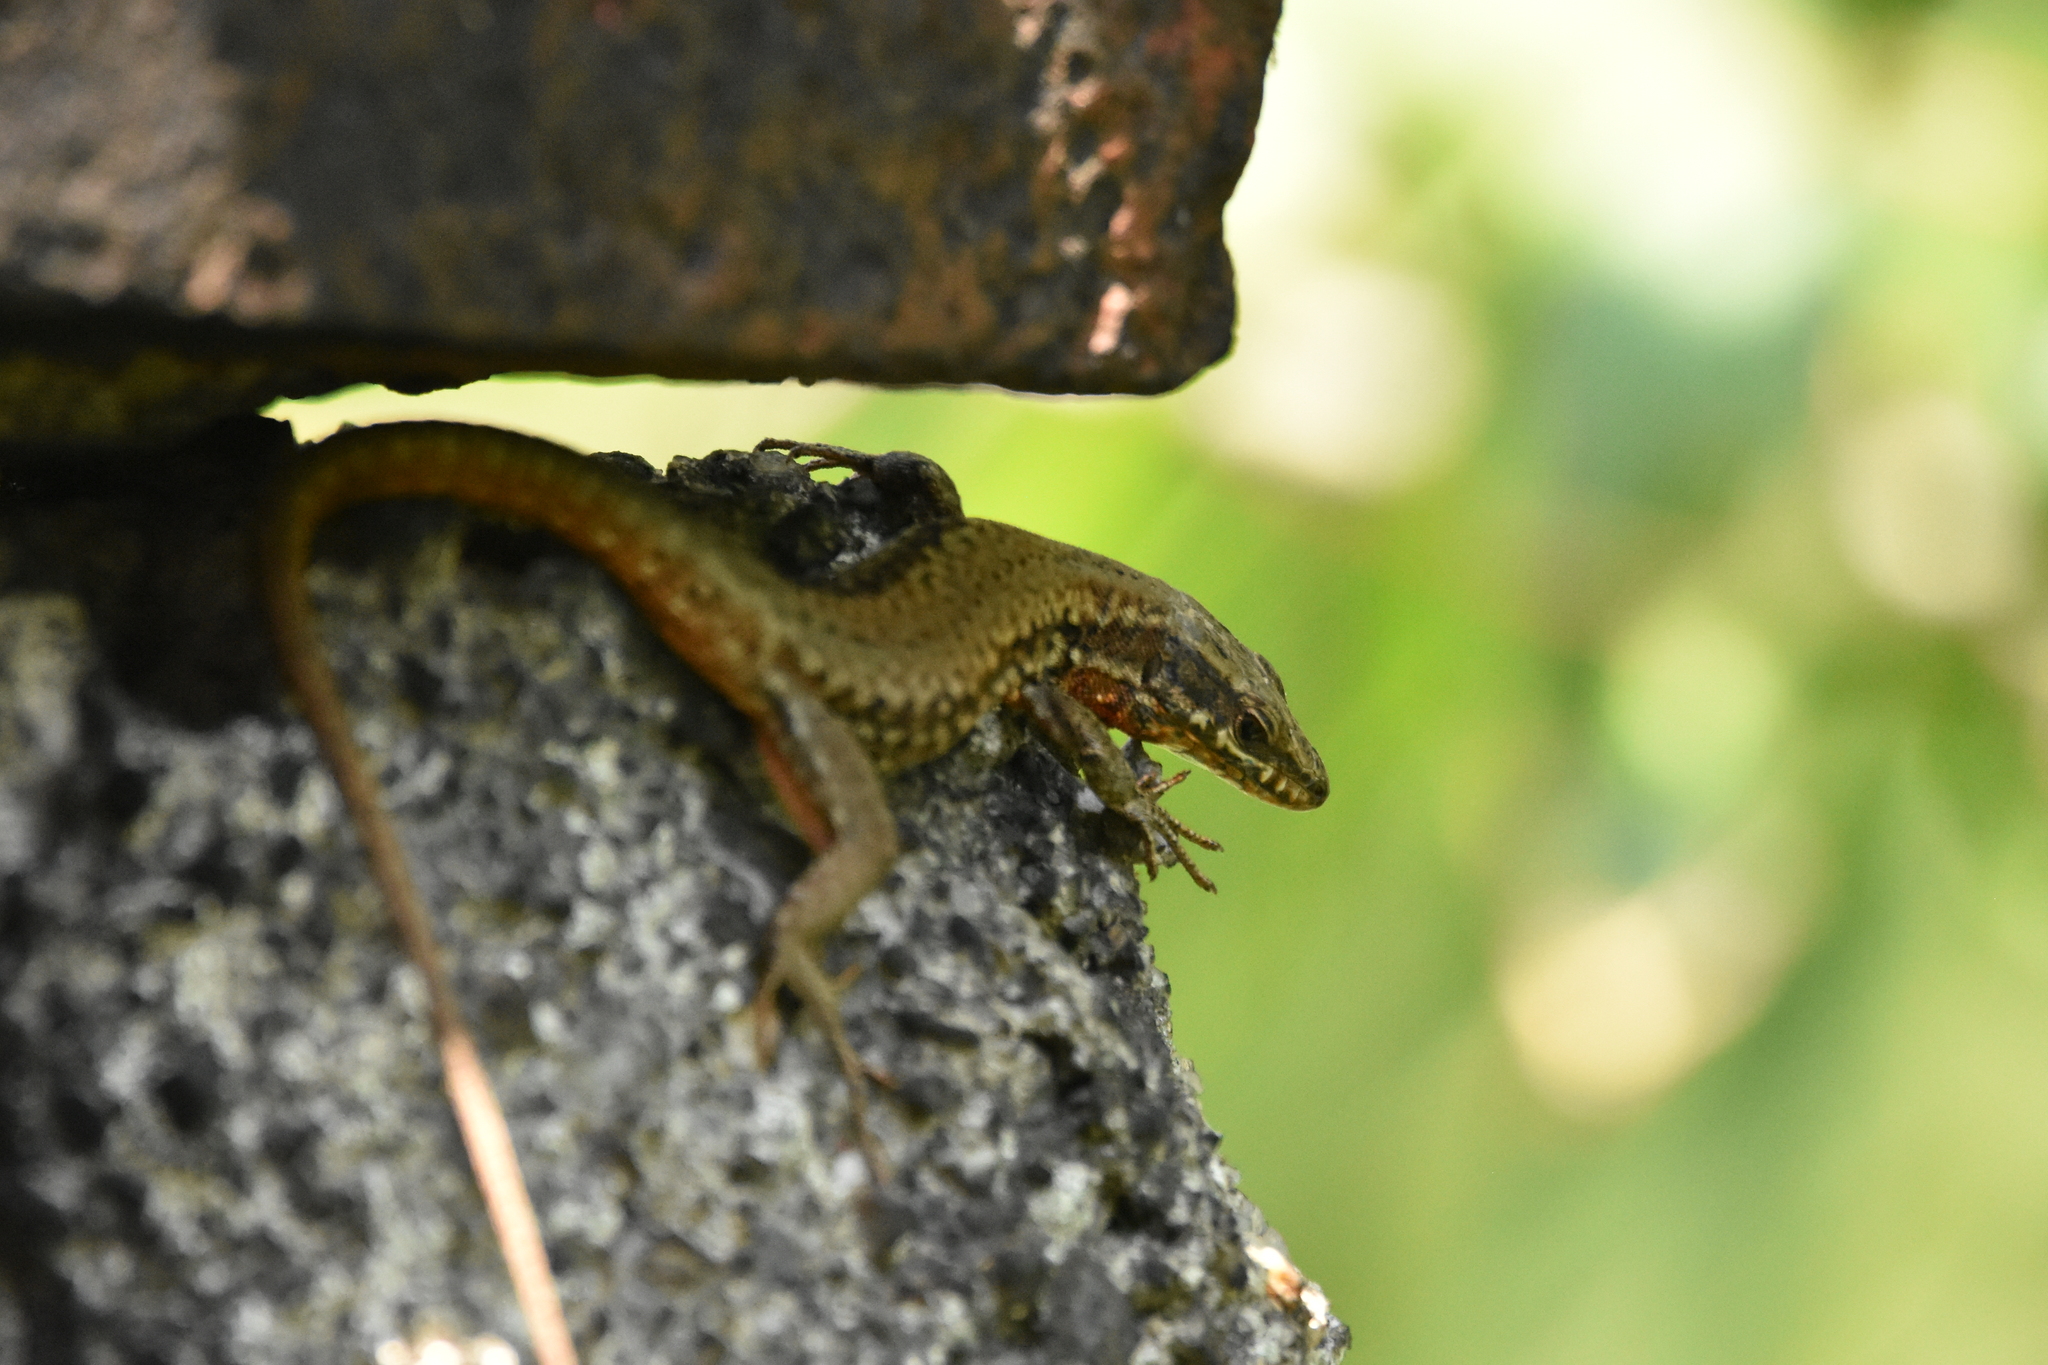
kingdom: Animalia
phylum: Chordata
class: Squamata
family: Lacertidae
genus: Podarcis
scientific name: Podarcis muralis
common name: Common wall lizard
